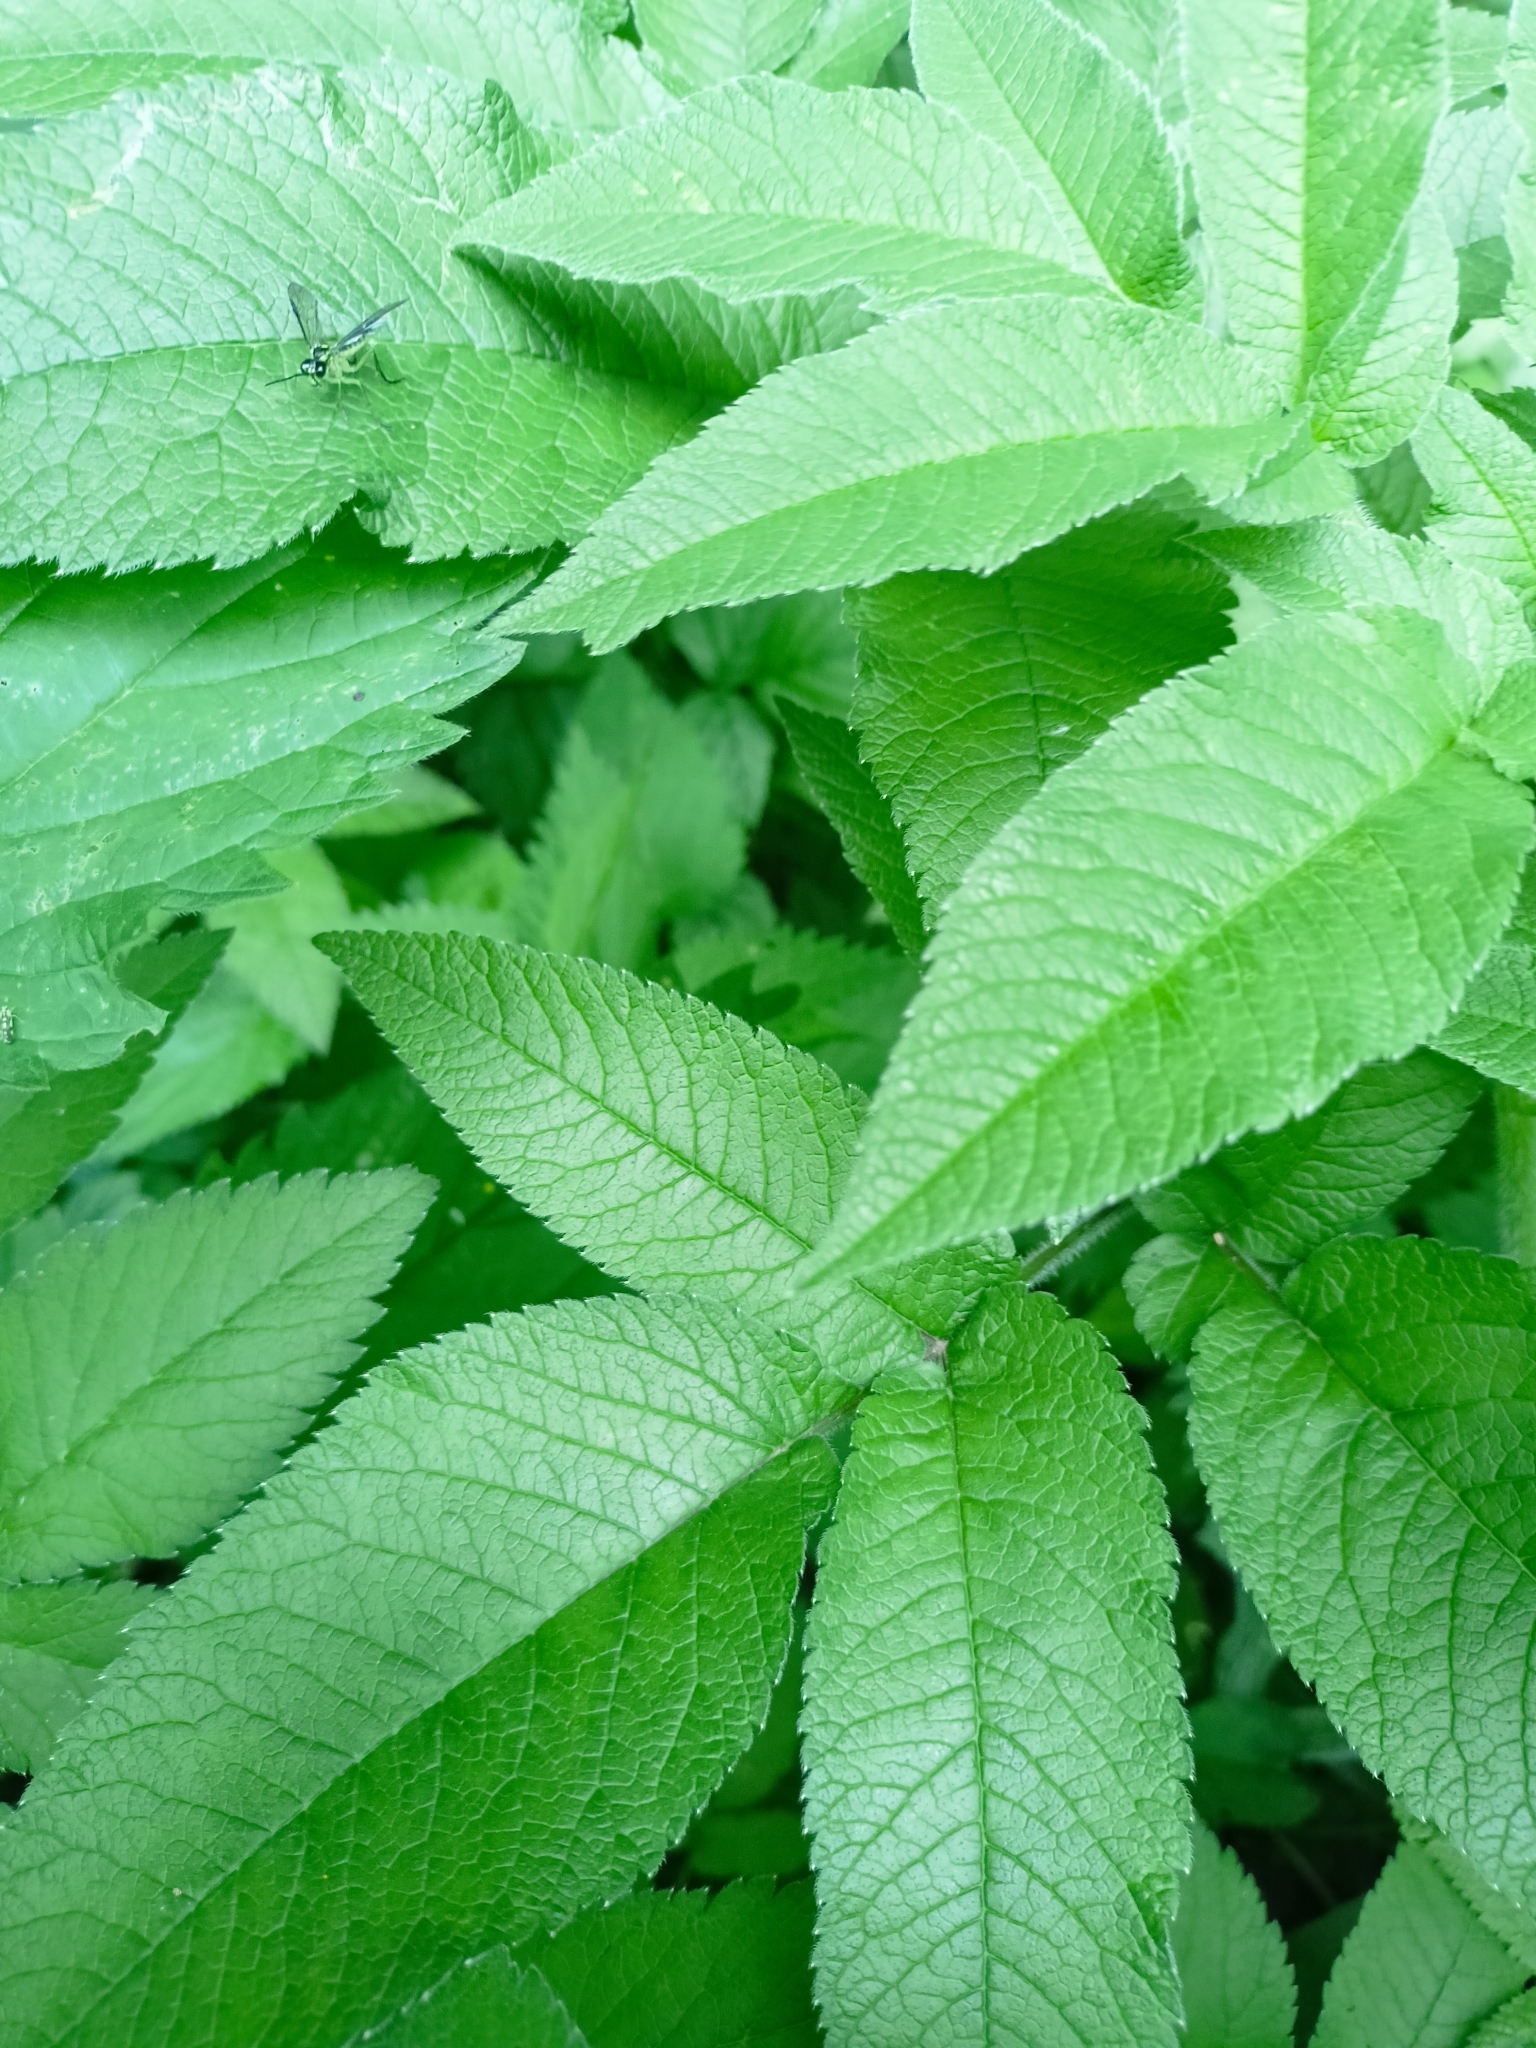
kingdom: Plantae
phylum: Tracheophyta
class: Magnoliopsida
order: Apiales
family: Apiaceae
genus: Chaerophyllum
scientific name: Chaerophyllum aromaticum
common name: Broadleaf chervil
